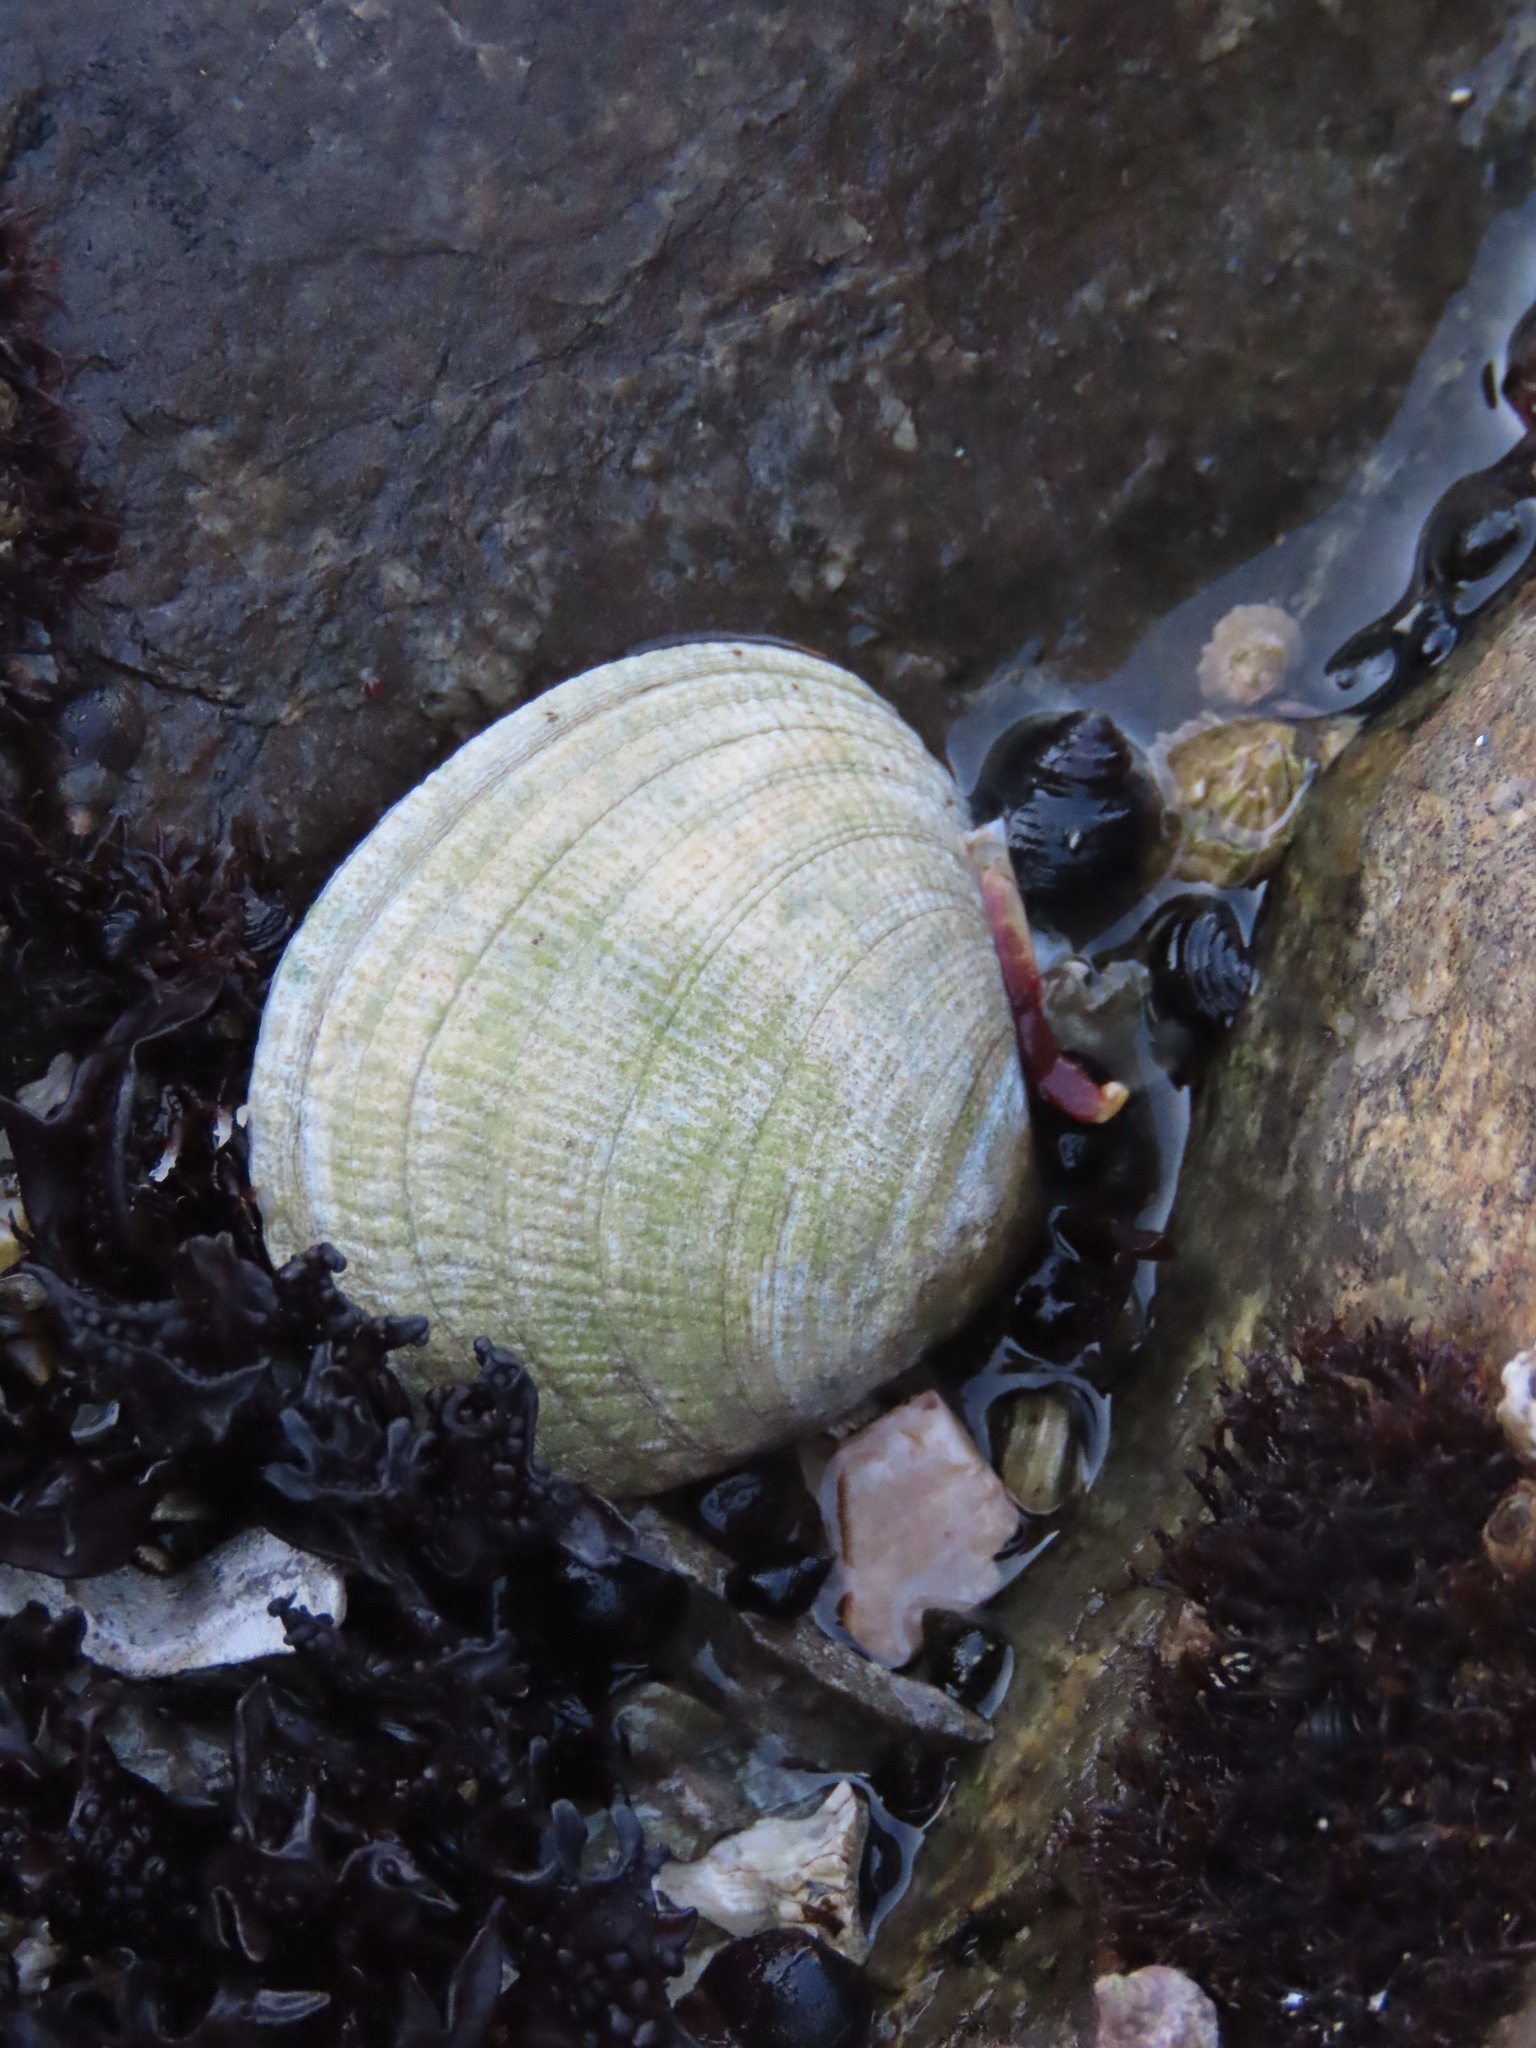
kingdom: Animalia
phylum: Mollusca
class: Bivalvia
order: Venerida
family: Veneridae
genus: Leukoma
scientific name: Leukoma staminea
